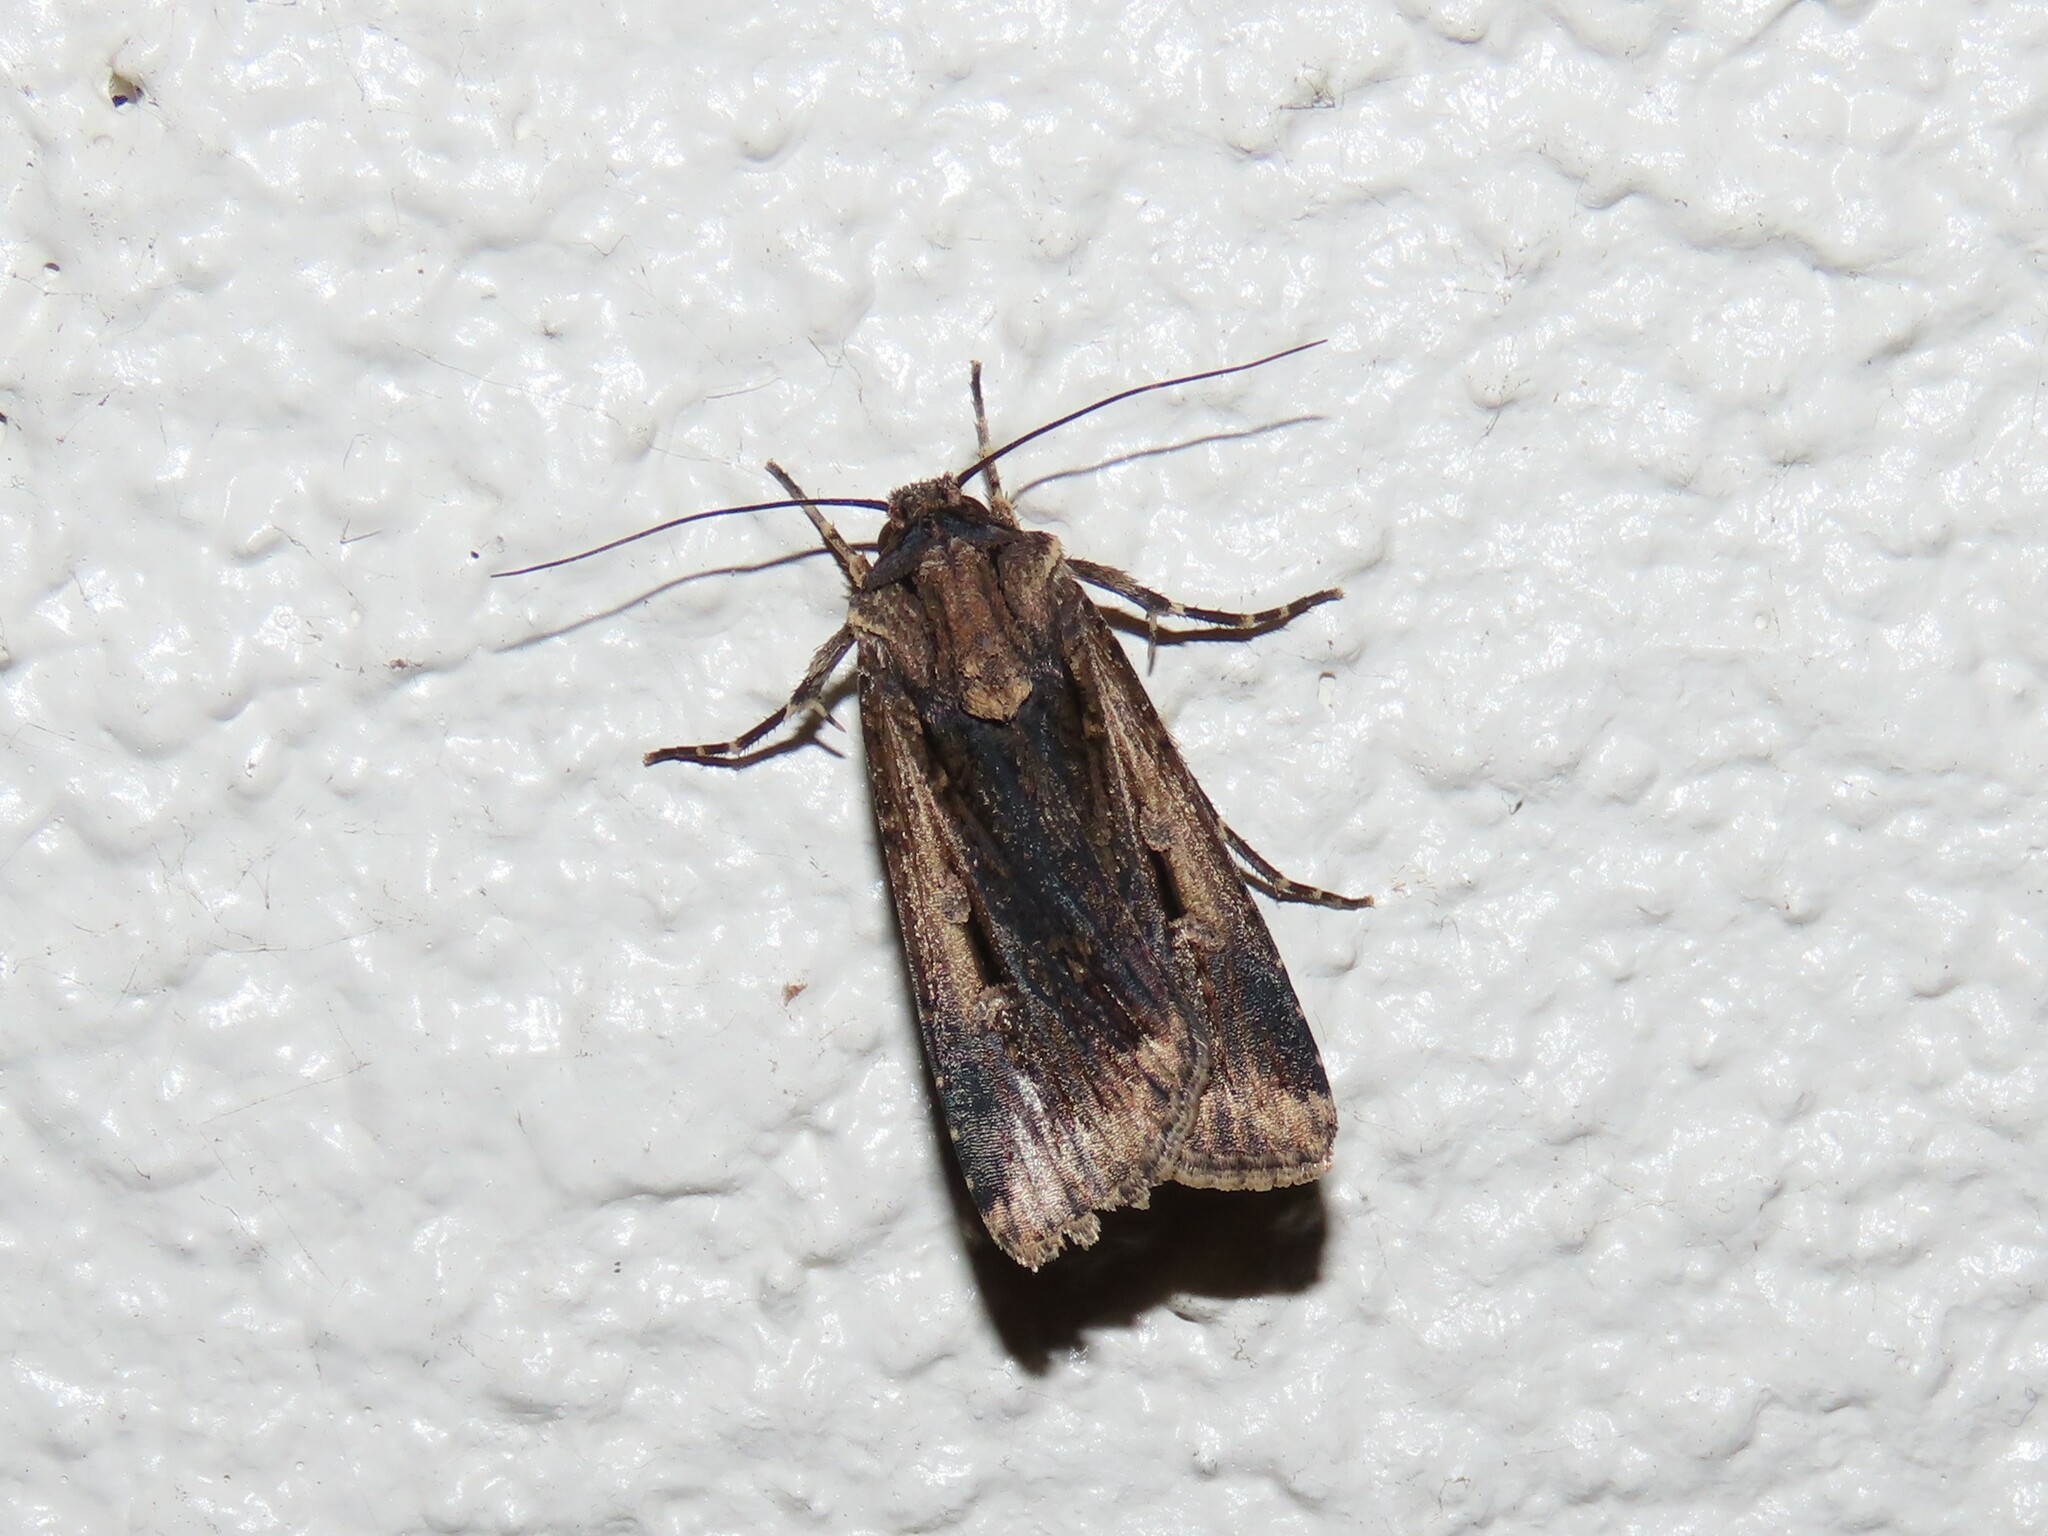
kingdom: Animalia
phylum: Arthropoda
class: Insecta
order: Lepidoptera
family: Noctuidae
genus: Feltia
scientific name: Feltia subterranea
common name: Granulate cutworm
